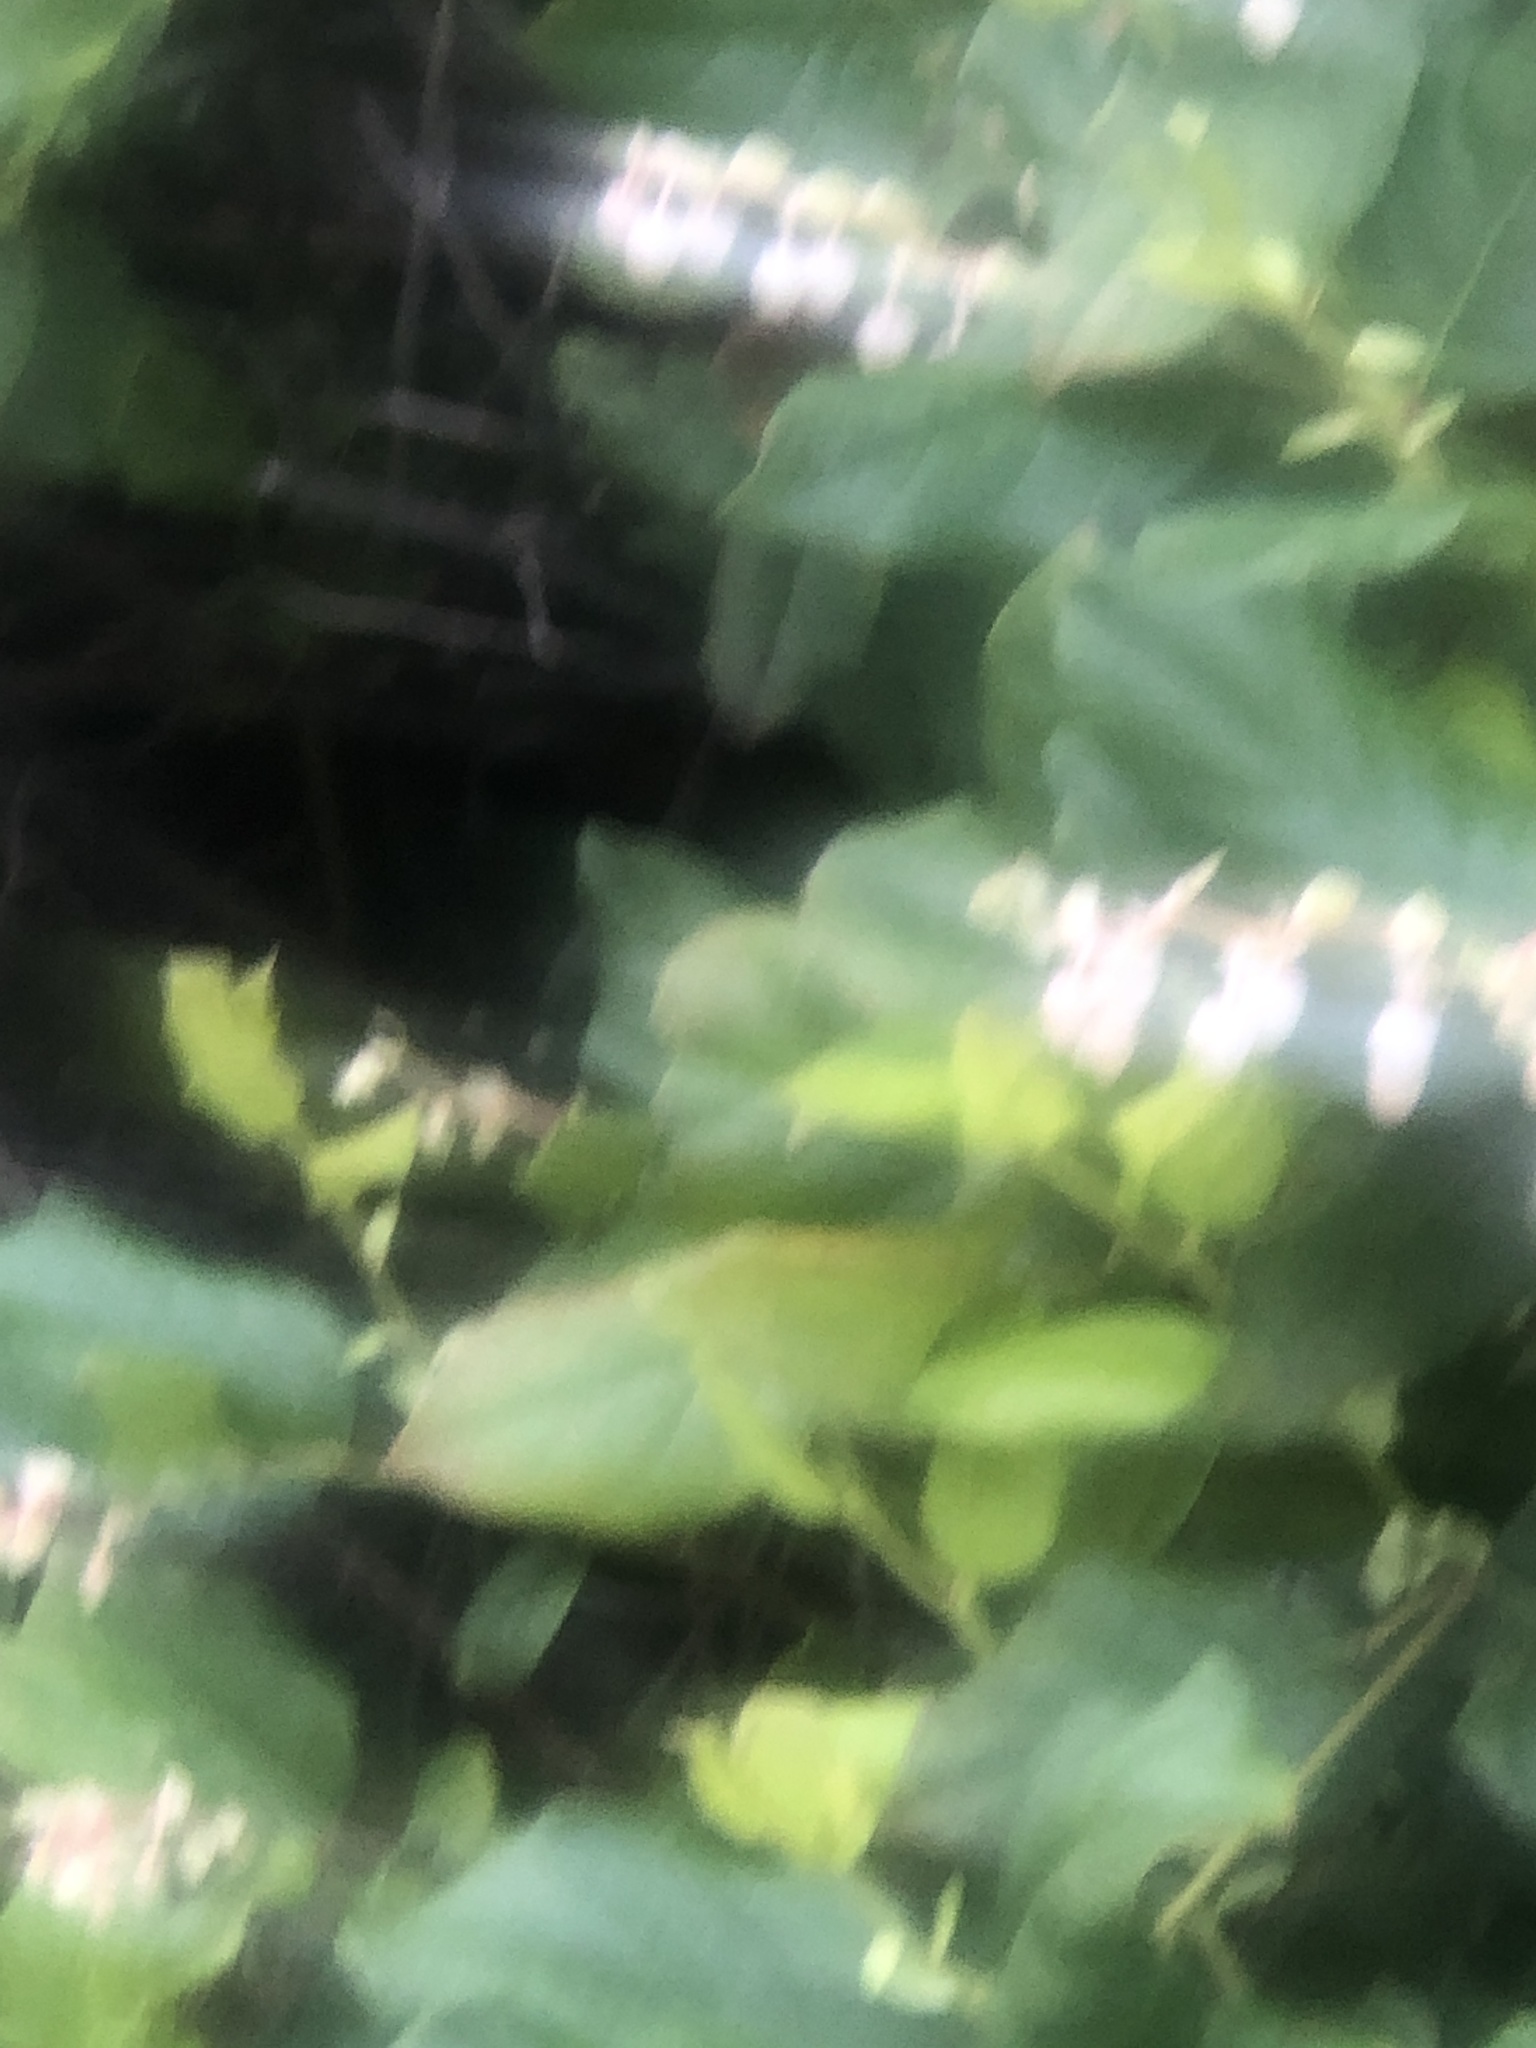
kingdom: Plantae
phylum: Tracheophyta
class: Magnoliopsida
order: Ericales
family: Ericaceae
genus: Gaultheria
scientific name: Gaultheria shallon
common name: Shallon
